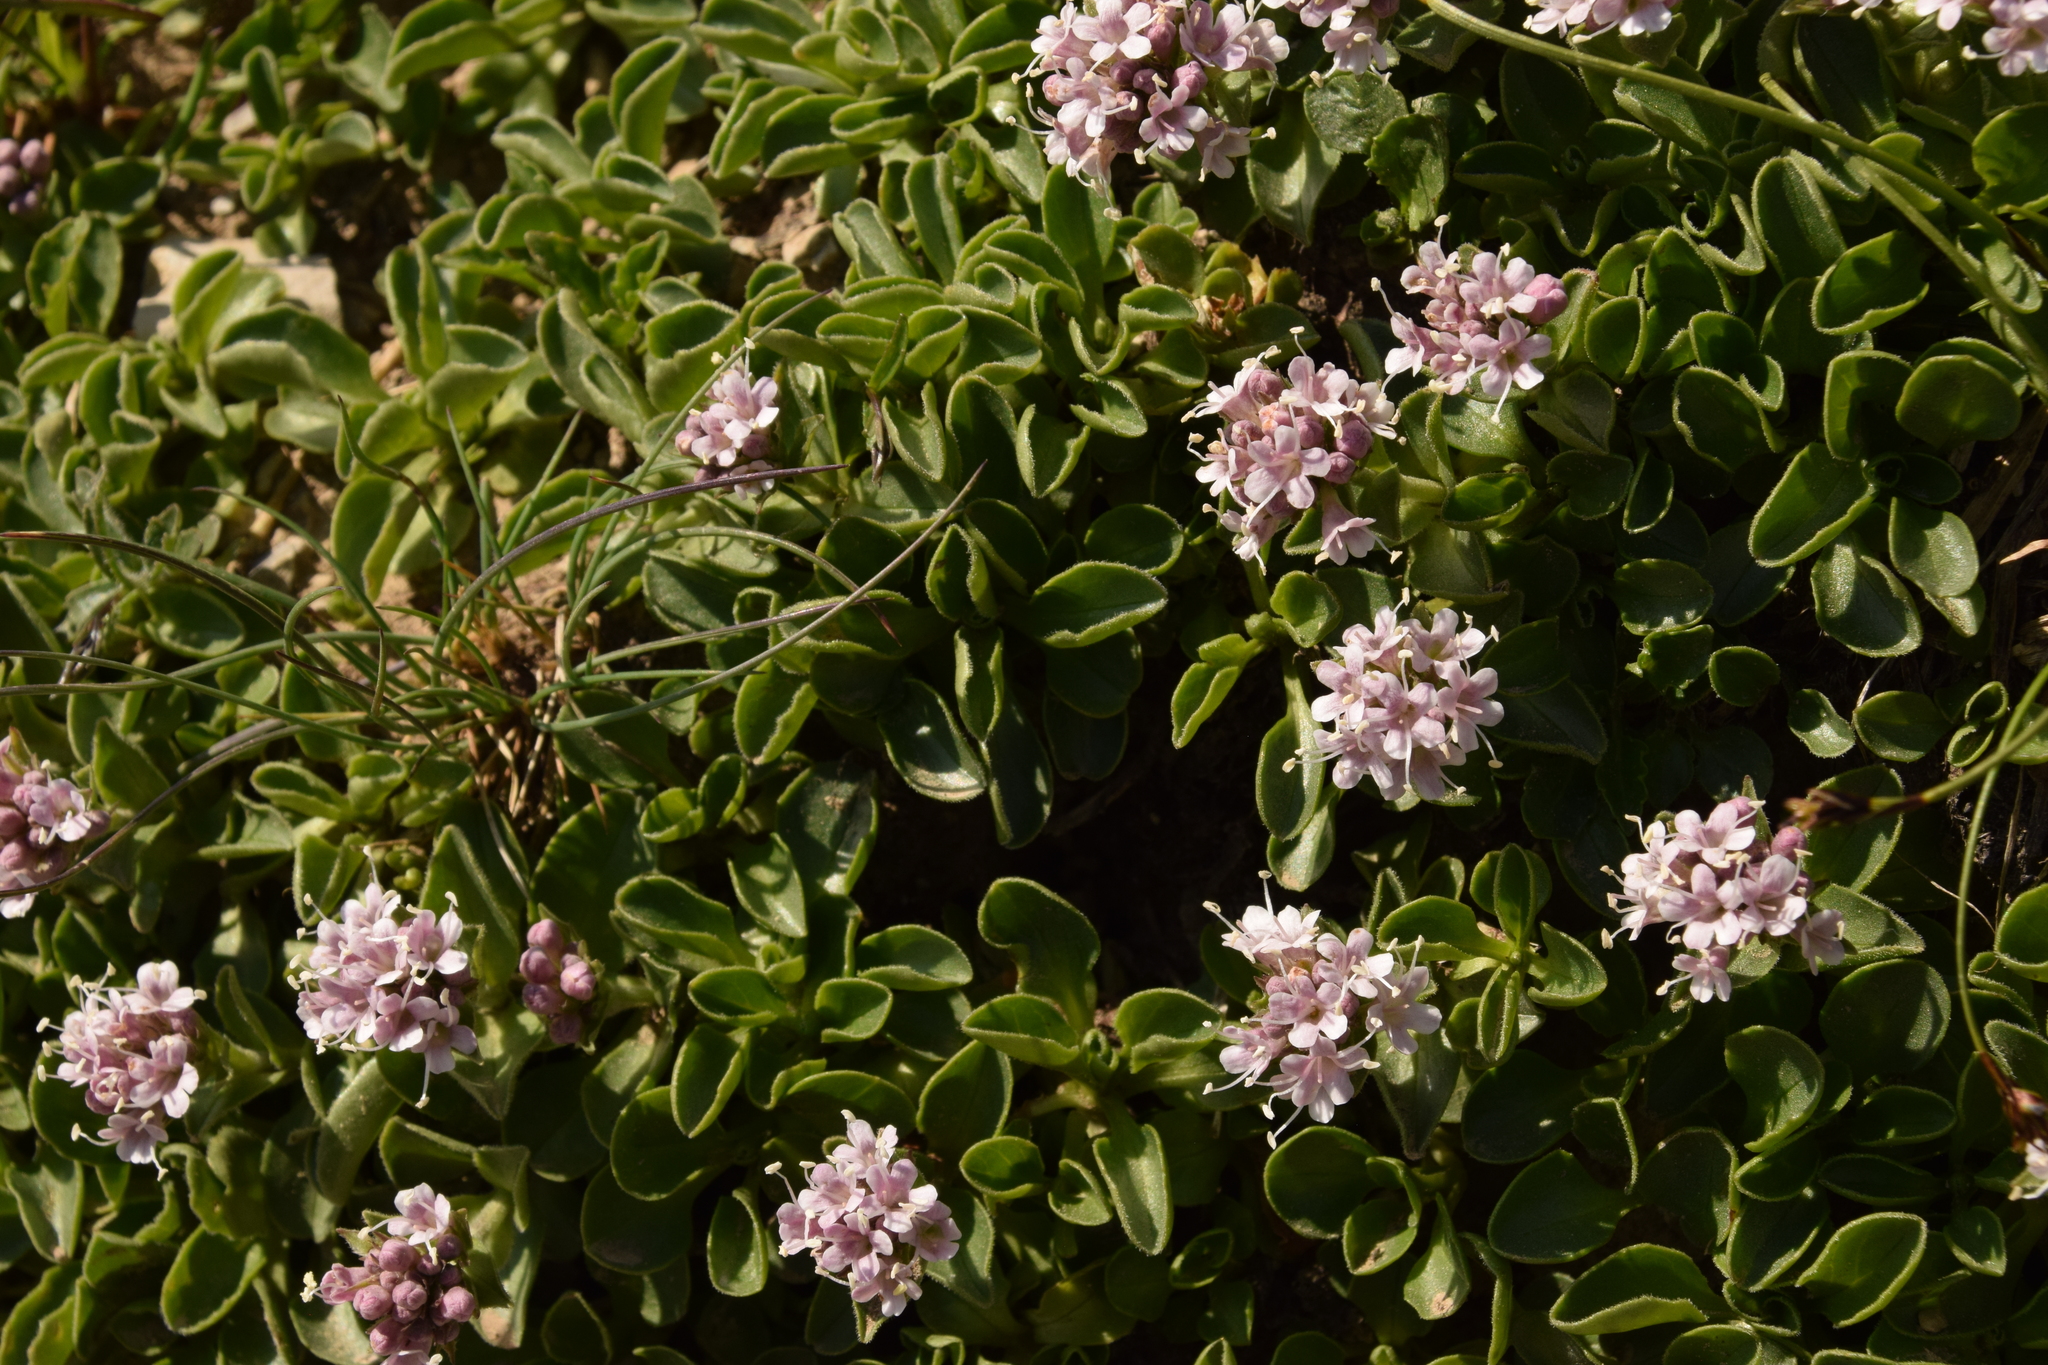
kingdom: Plantae
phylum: Tracheophyta
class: Magnoliopsida
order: Dipsacales
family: Caprifoliaceae
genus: Valeriana
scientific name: Valeriana supina
